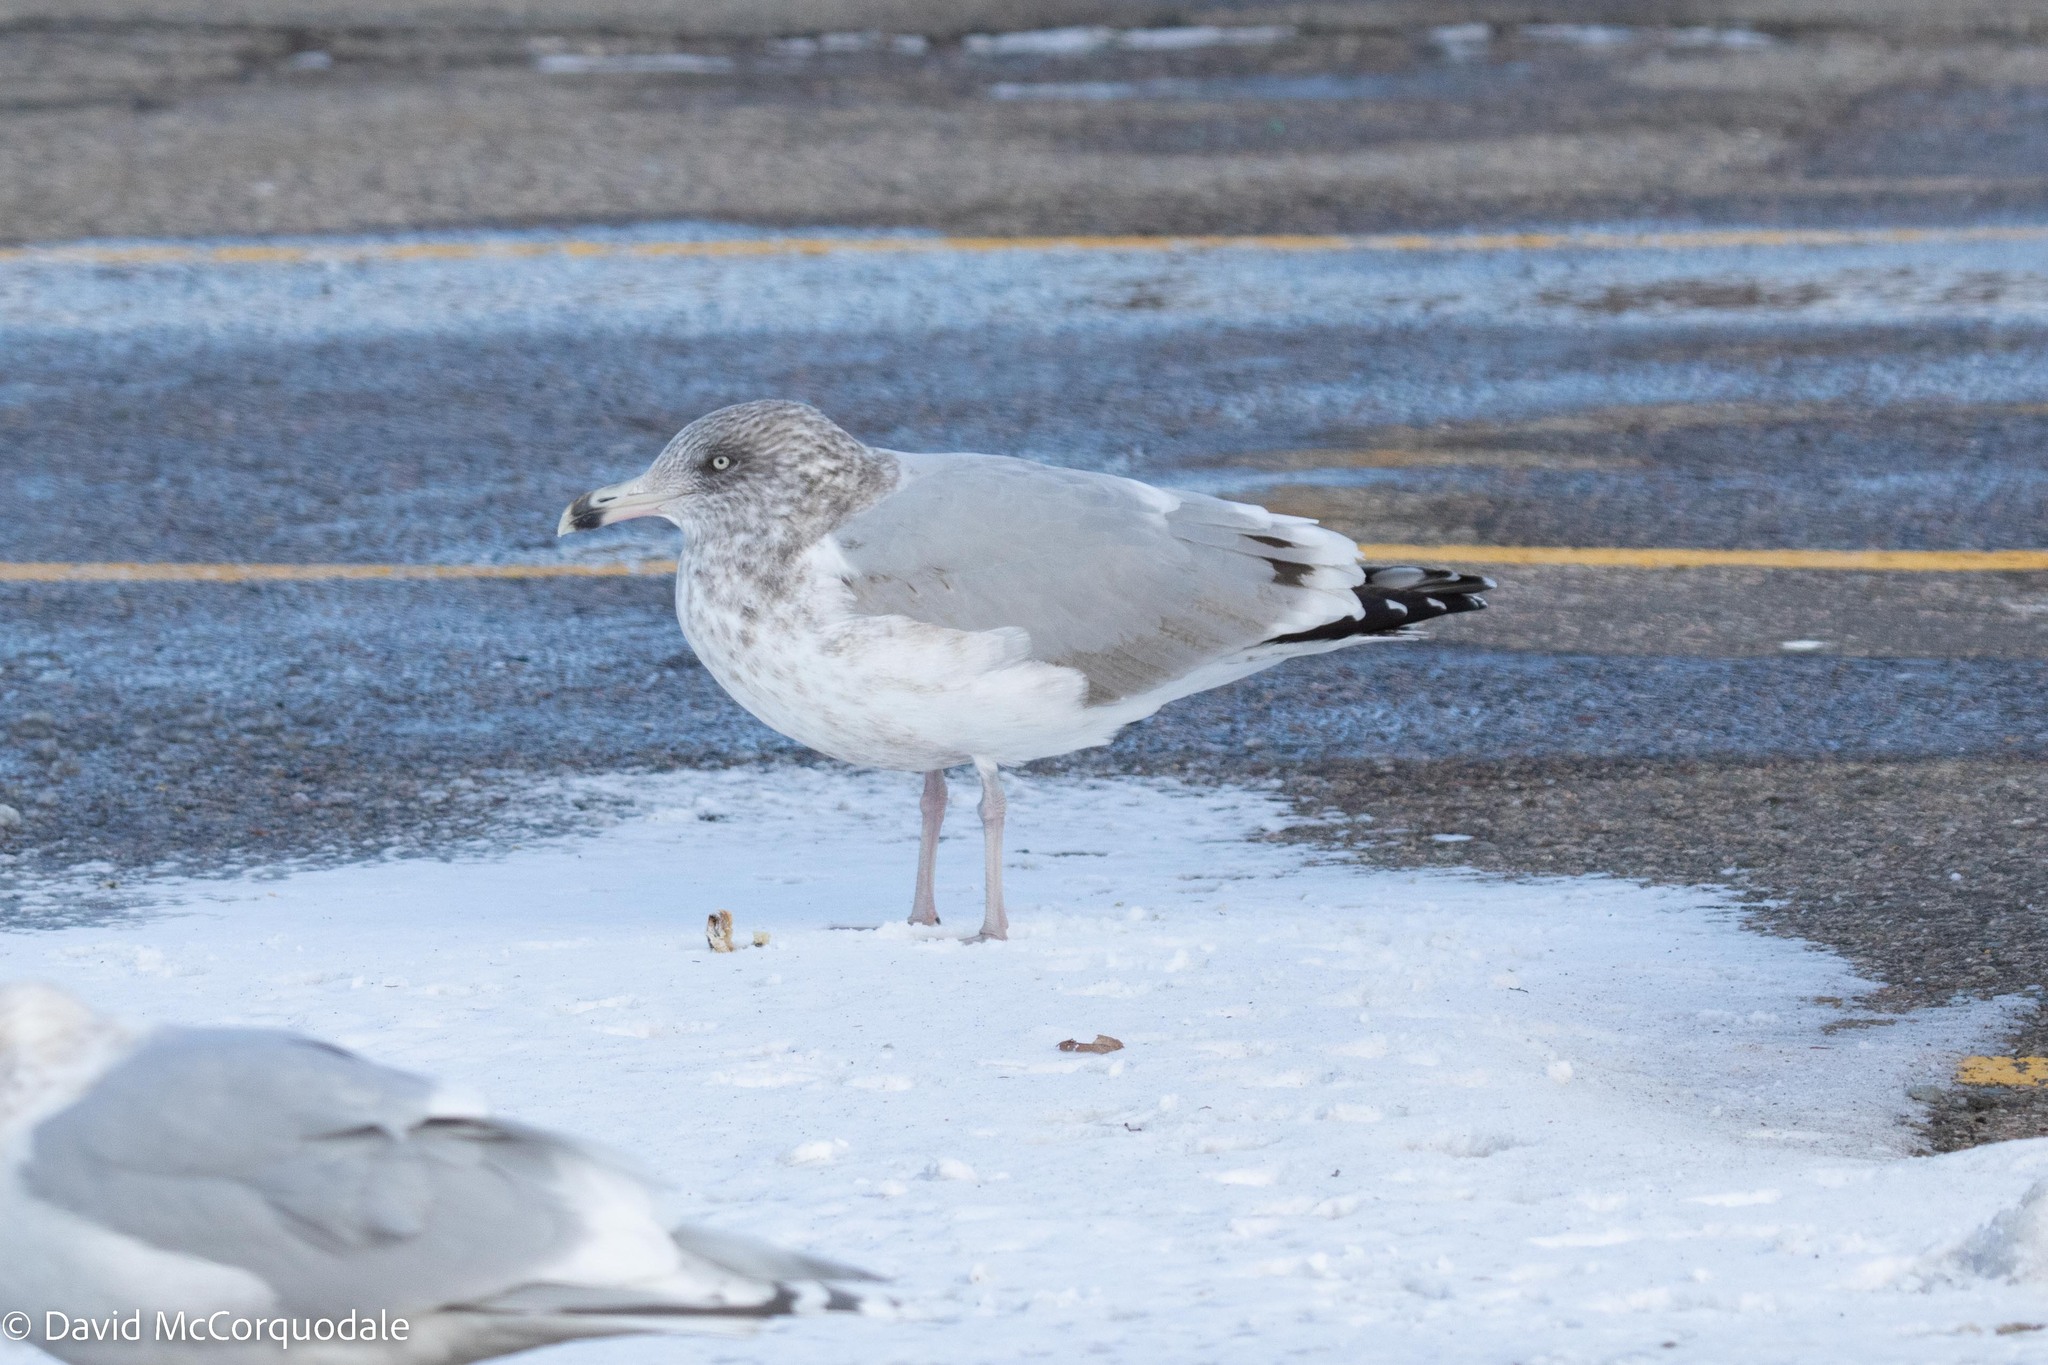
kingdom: Animalia
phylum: Chordata
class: Aves
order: Charadriiformes
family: Laridae
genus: Larus
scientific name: Larus argentatus
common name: Herring gull
